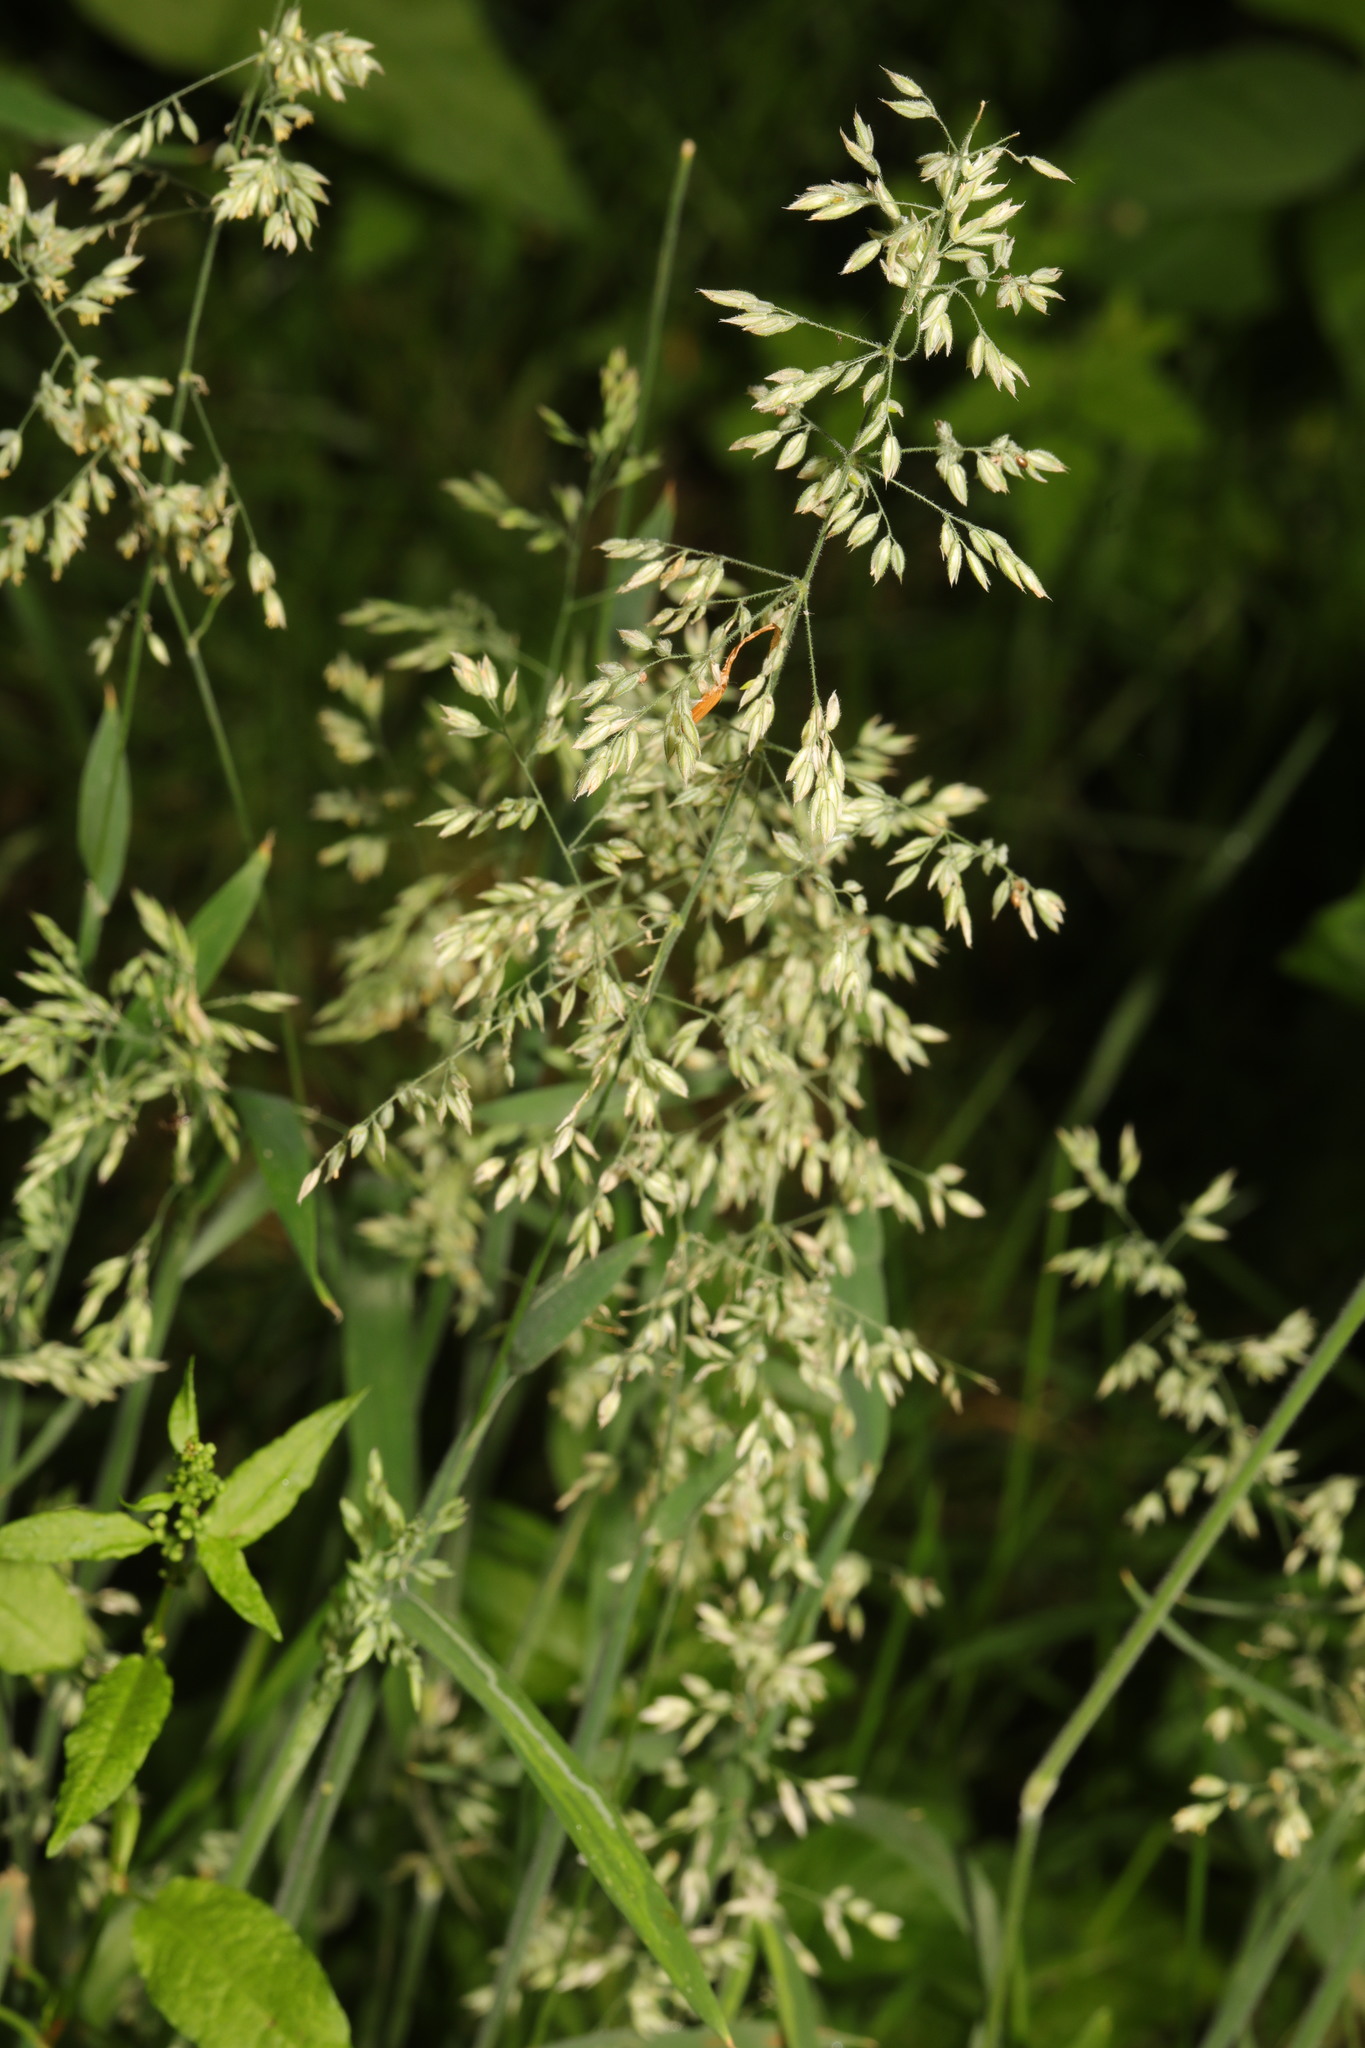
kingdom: Plantae
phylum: Tracheophyta
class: Liliopsida
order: Poales
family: Poaceae
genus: Holcus
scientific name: Holcus lanatus
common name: Yorkshire-fog
